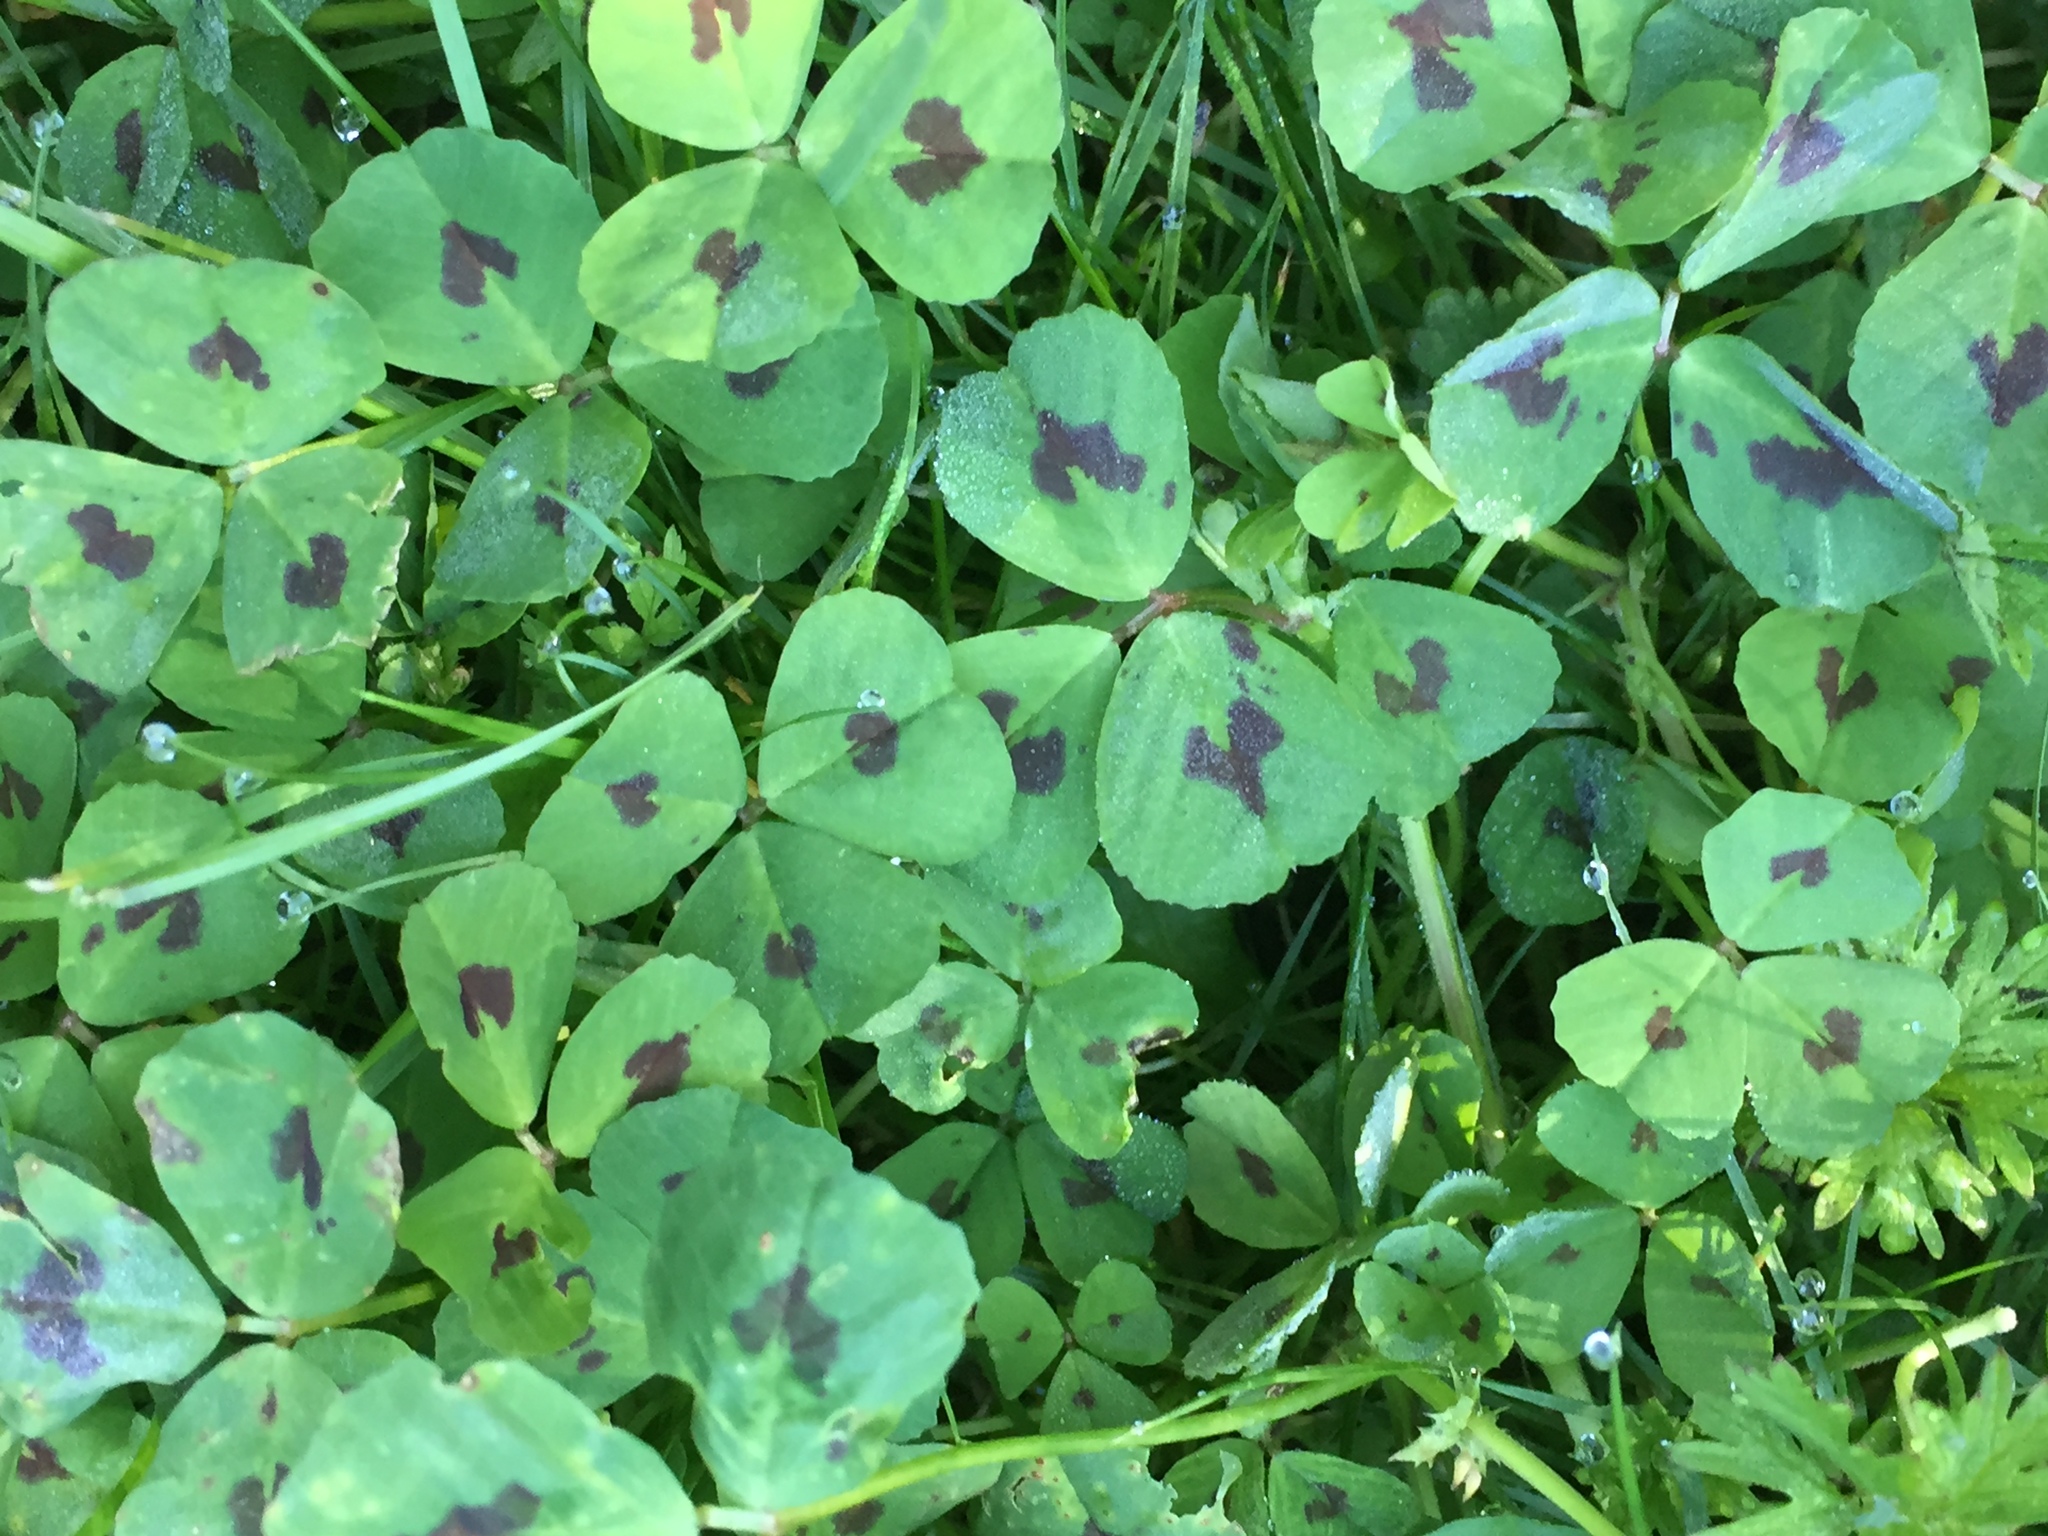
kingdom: Plantae
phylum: Tracheophyta
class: Magnoliopsida
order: Fabales
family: Fabaceae
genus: Medicago
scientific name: Medicago arabica
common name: Spotted medick
